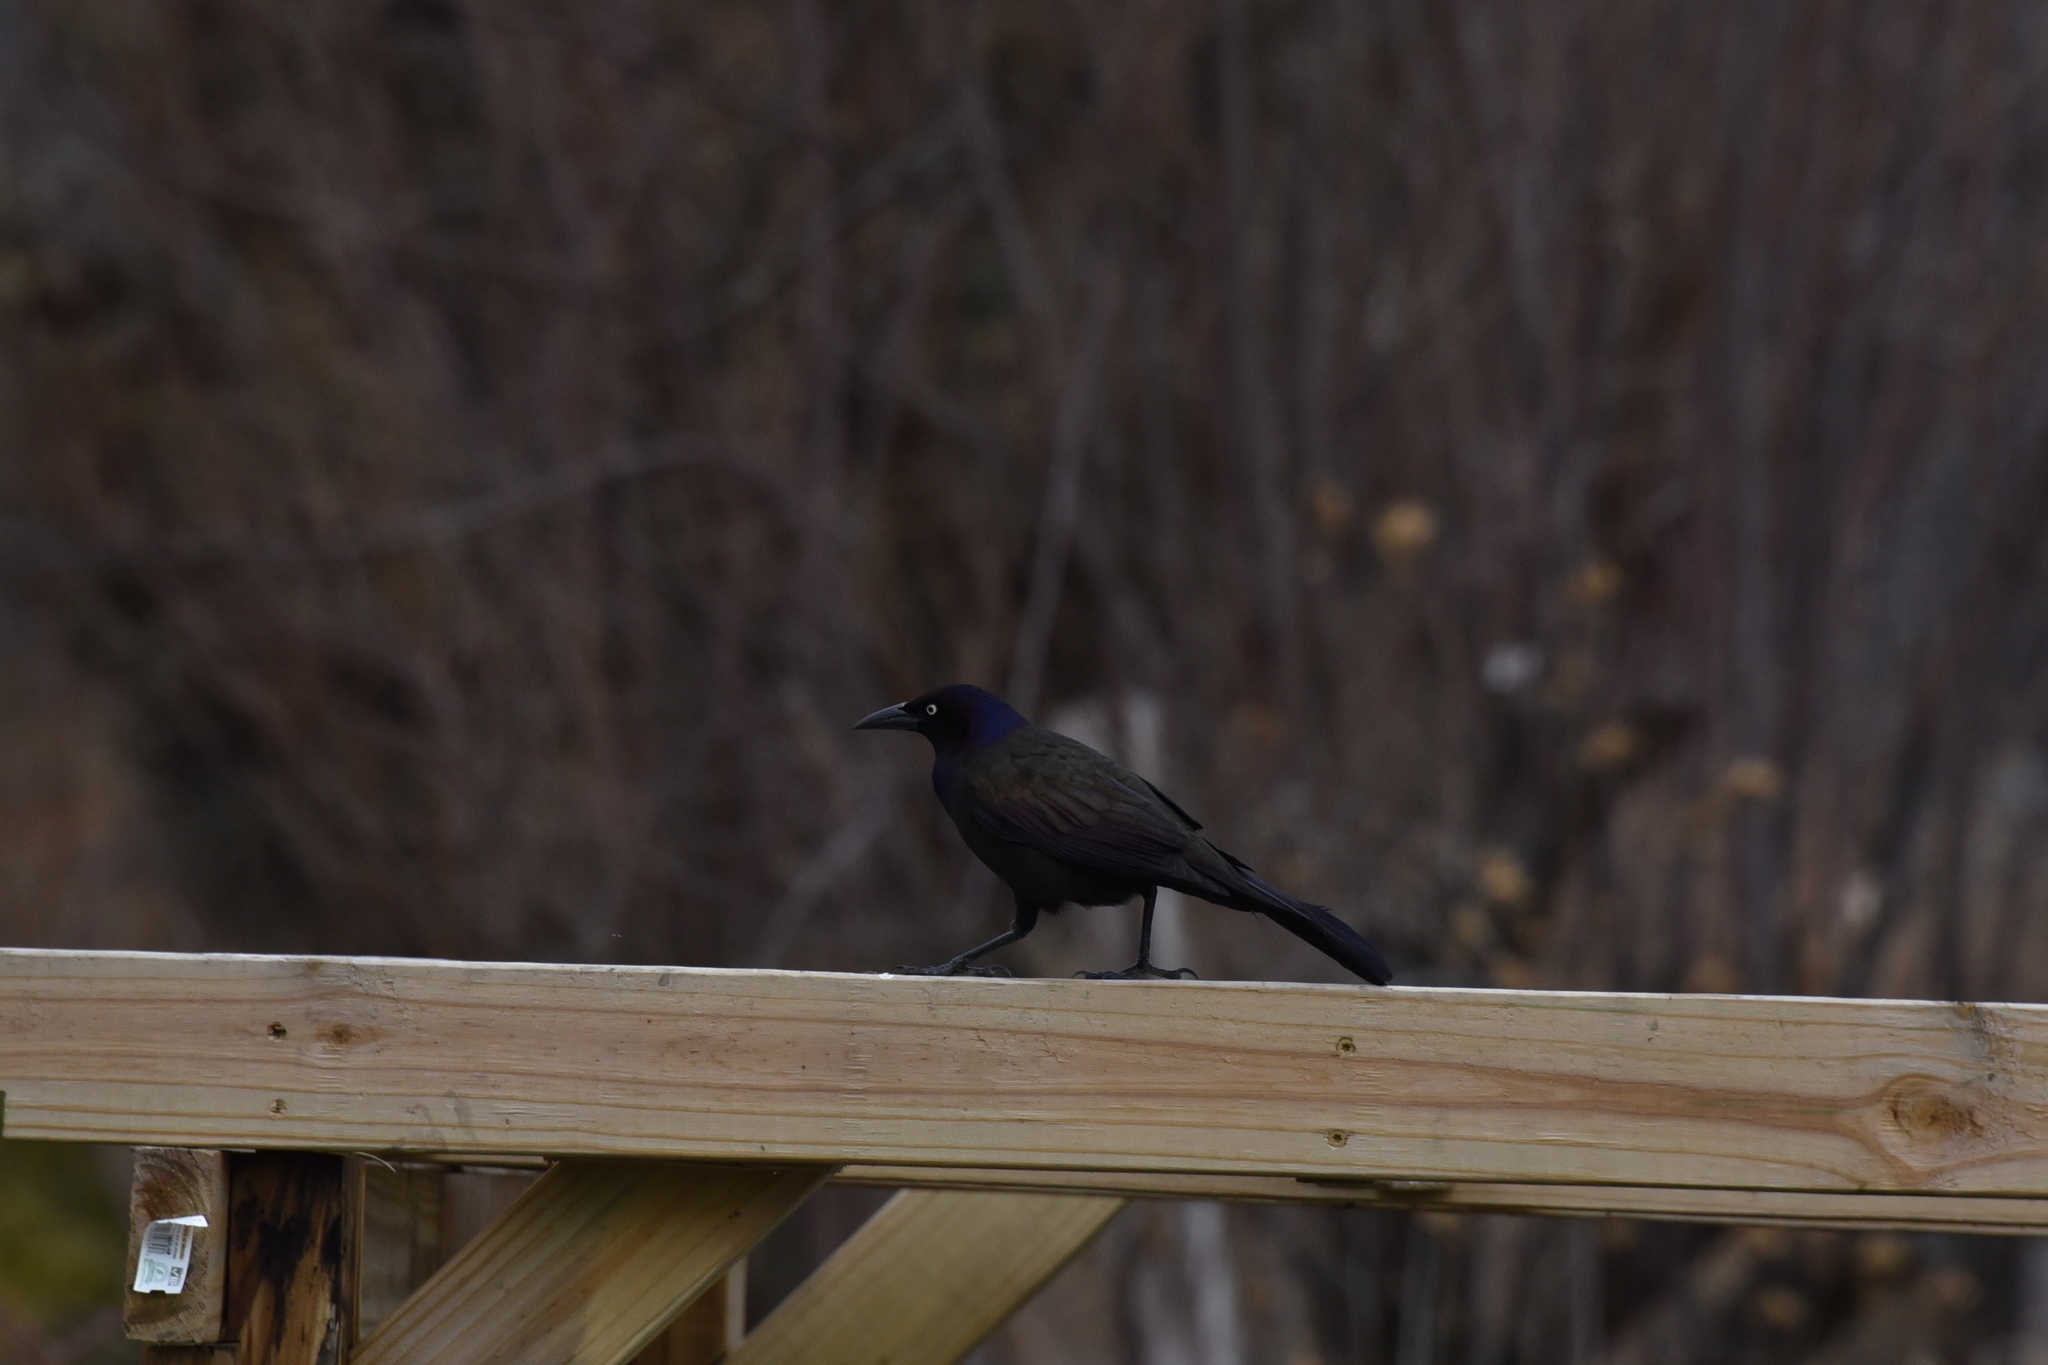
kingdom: Animalia
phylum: Chordata
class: Aves
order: Passeriformes
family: Icteridae
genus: Quiscalus
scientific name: Quiscalus quiscula
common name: Common grackle
